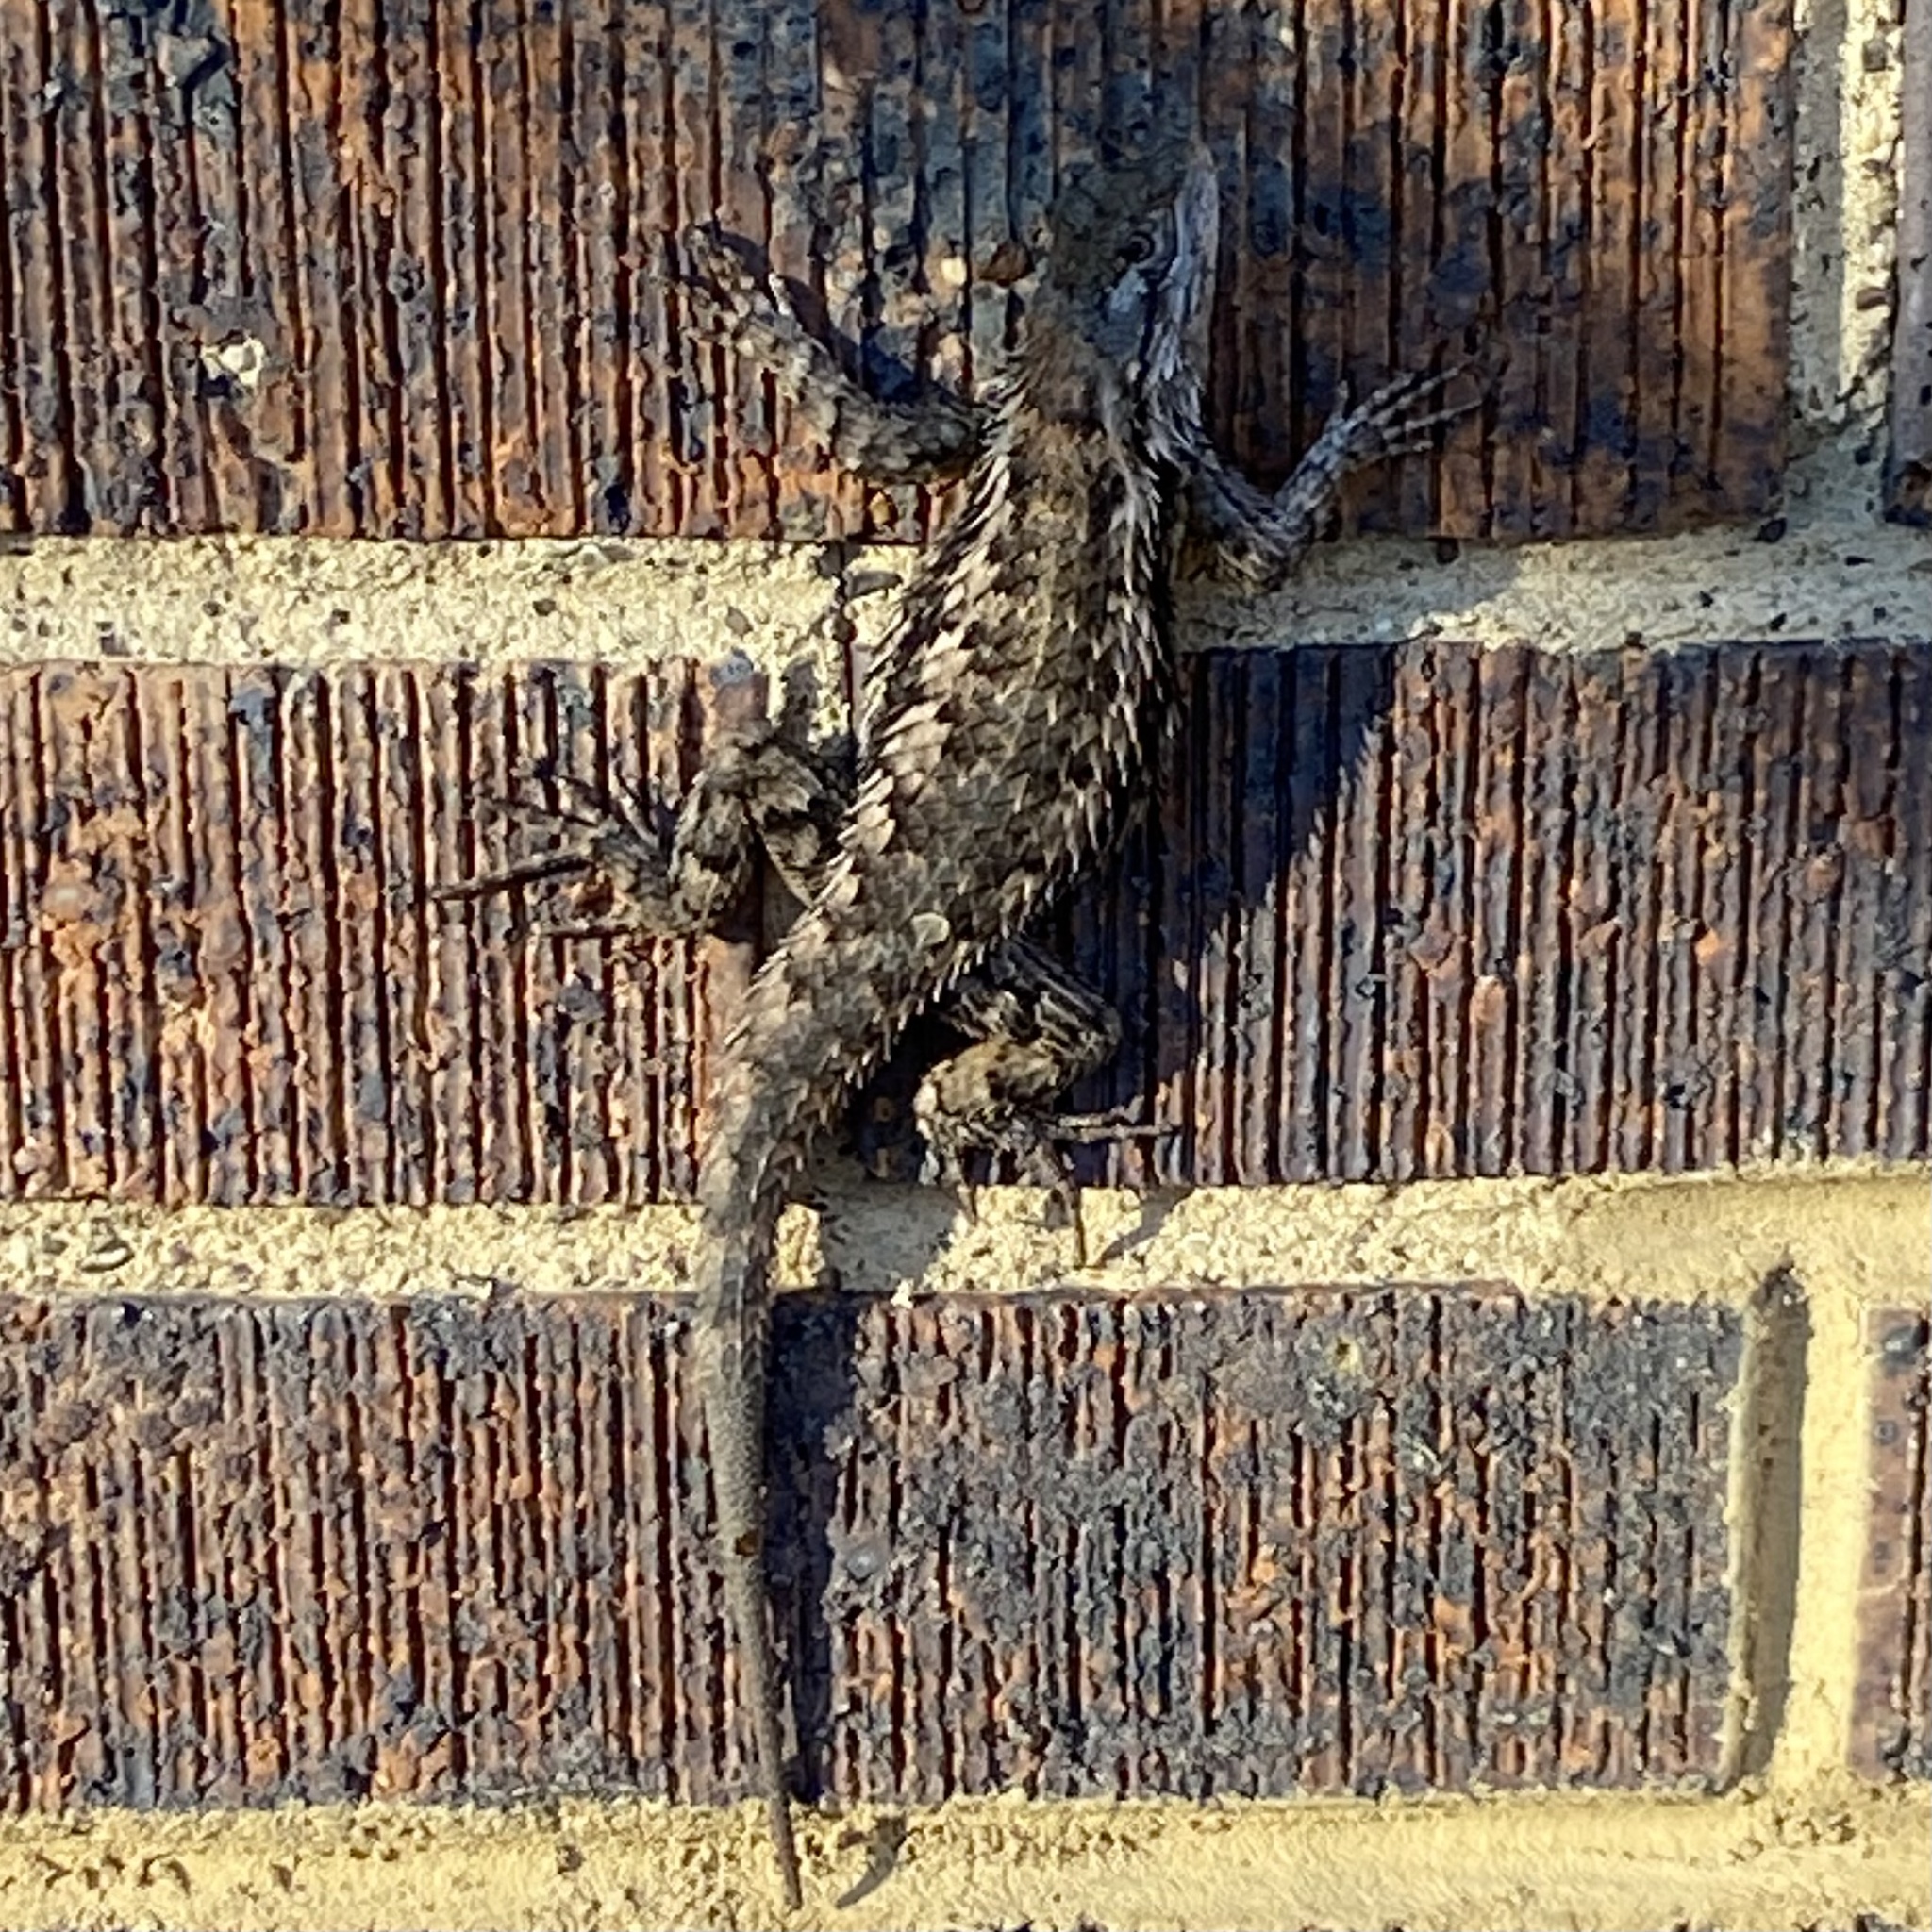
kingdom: Animalia
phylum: Chordata
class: Squamata
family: Phrynosomatidae
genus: Sceloporus
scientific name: Sceloporus olivaceus
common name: Texas spiny lizard
